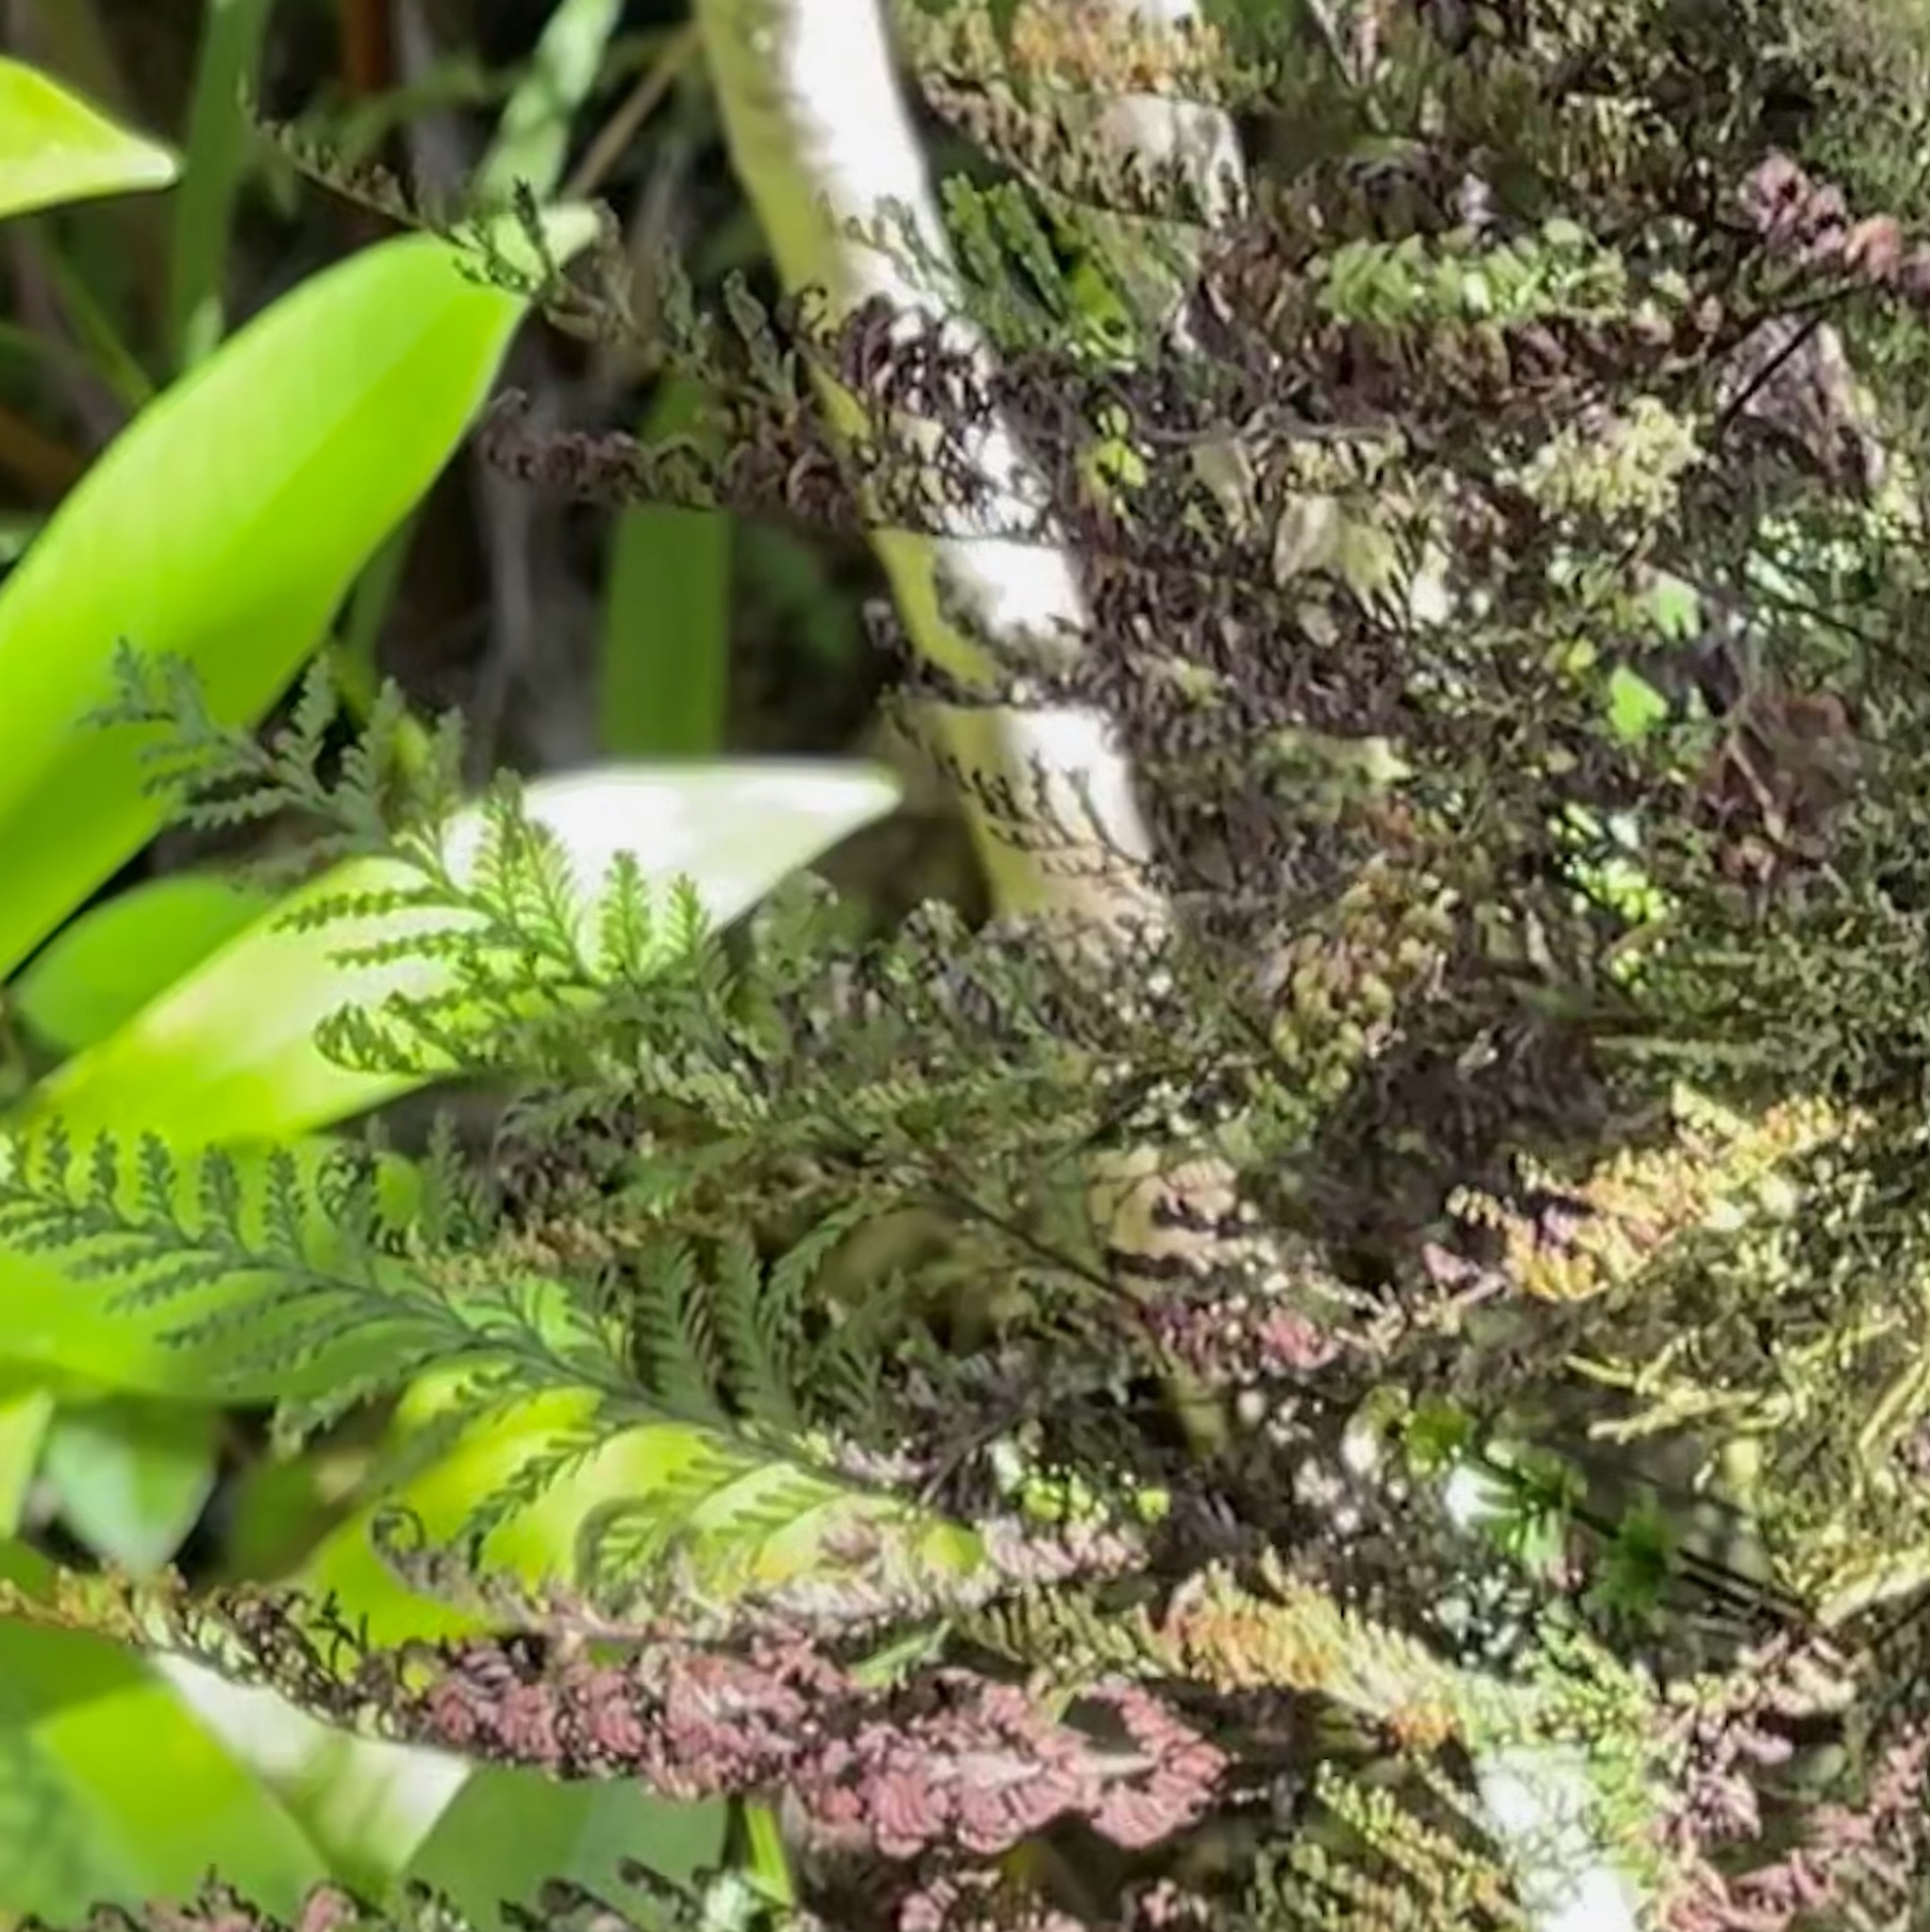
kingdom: Plantae
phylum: Tracheophyta
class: Polypodiopsida
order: Polypodiales
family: Polypodiaceae
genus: Adenophorus
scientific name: Adenophorus tamariscinus
